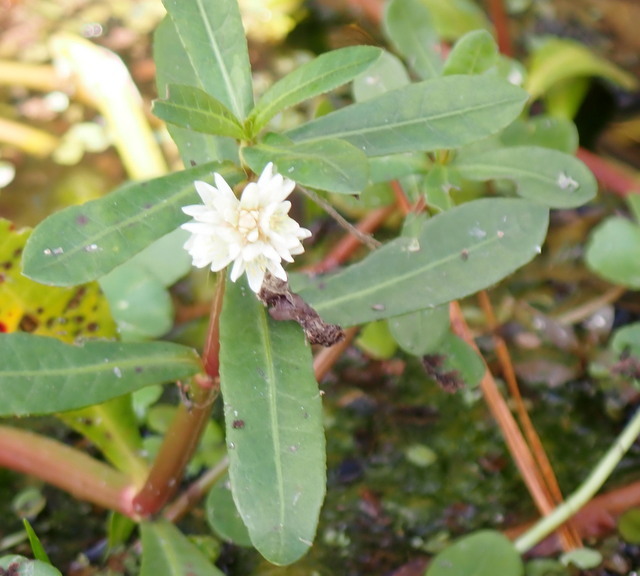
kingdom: Plantae
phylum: Tracheophyta
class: Magnoliopsida
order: Caryophyllales
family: Amaranthaceae
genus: Alternanthera
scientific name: Alternanthera philoxeroides
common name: Alligatorweed
